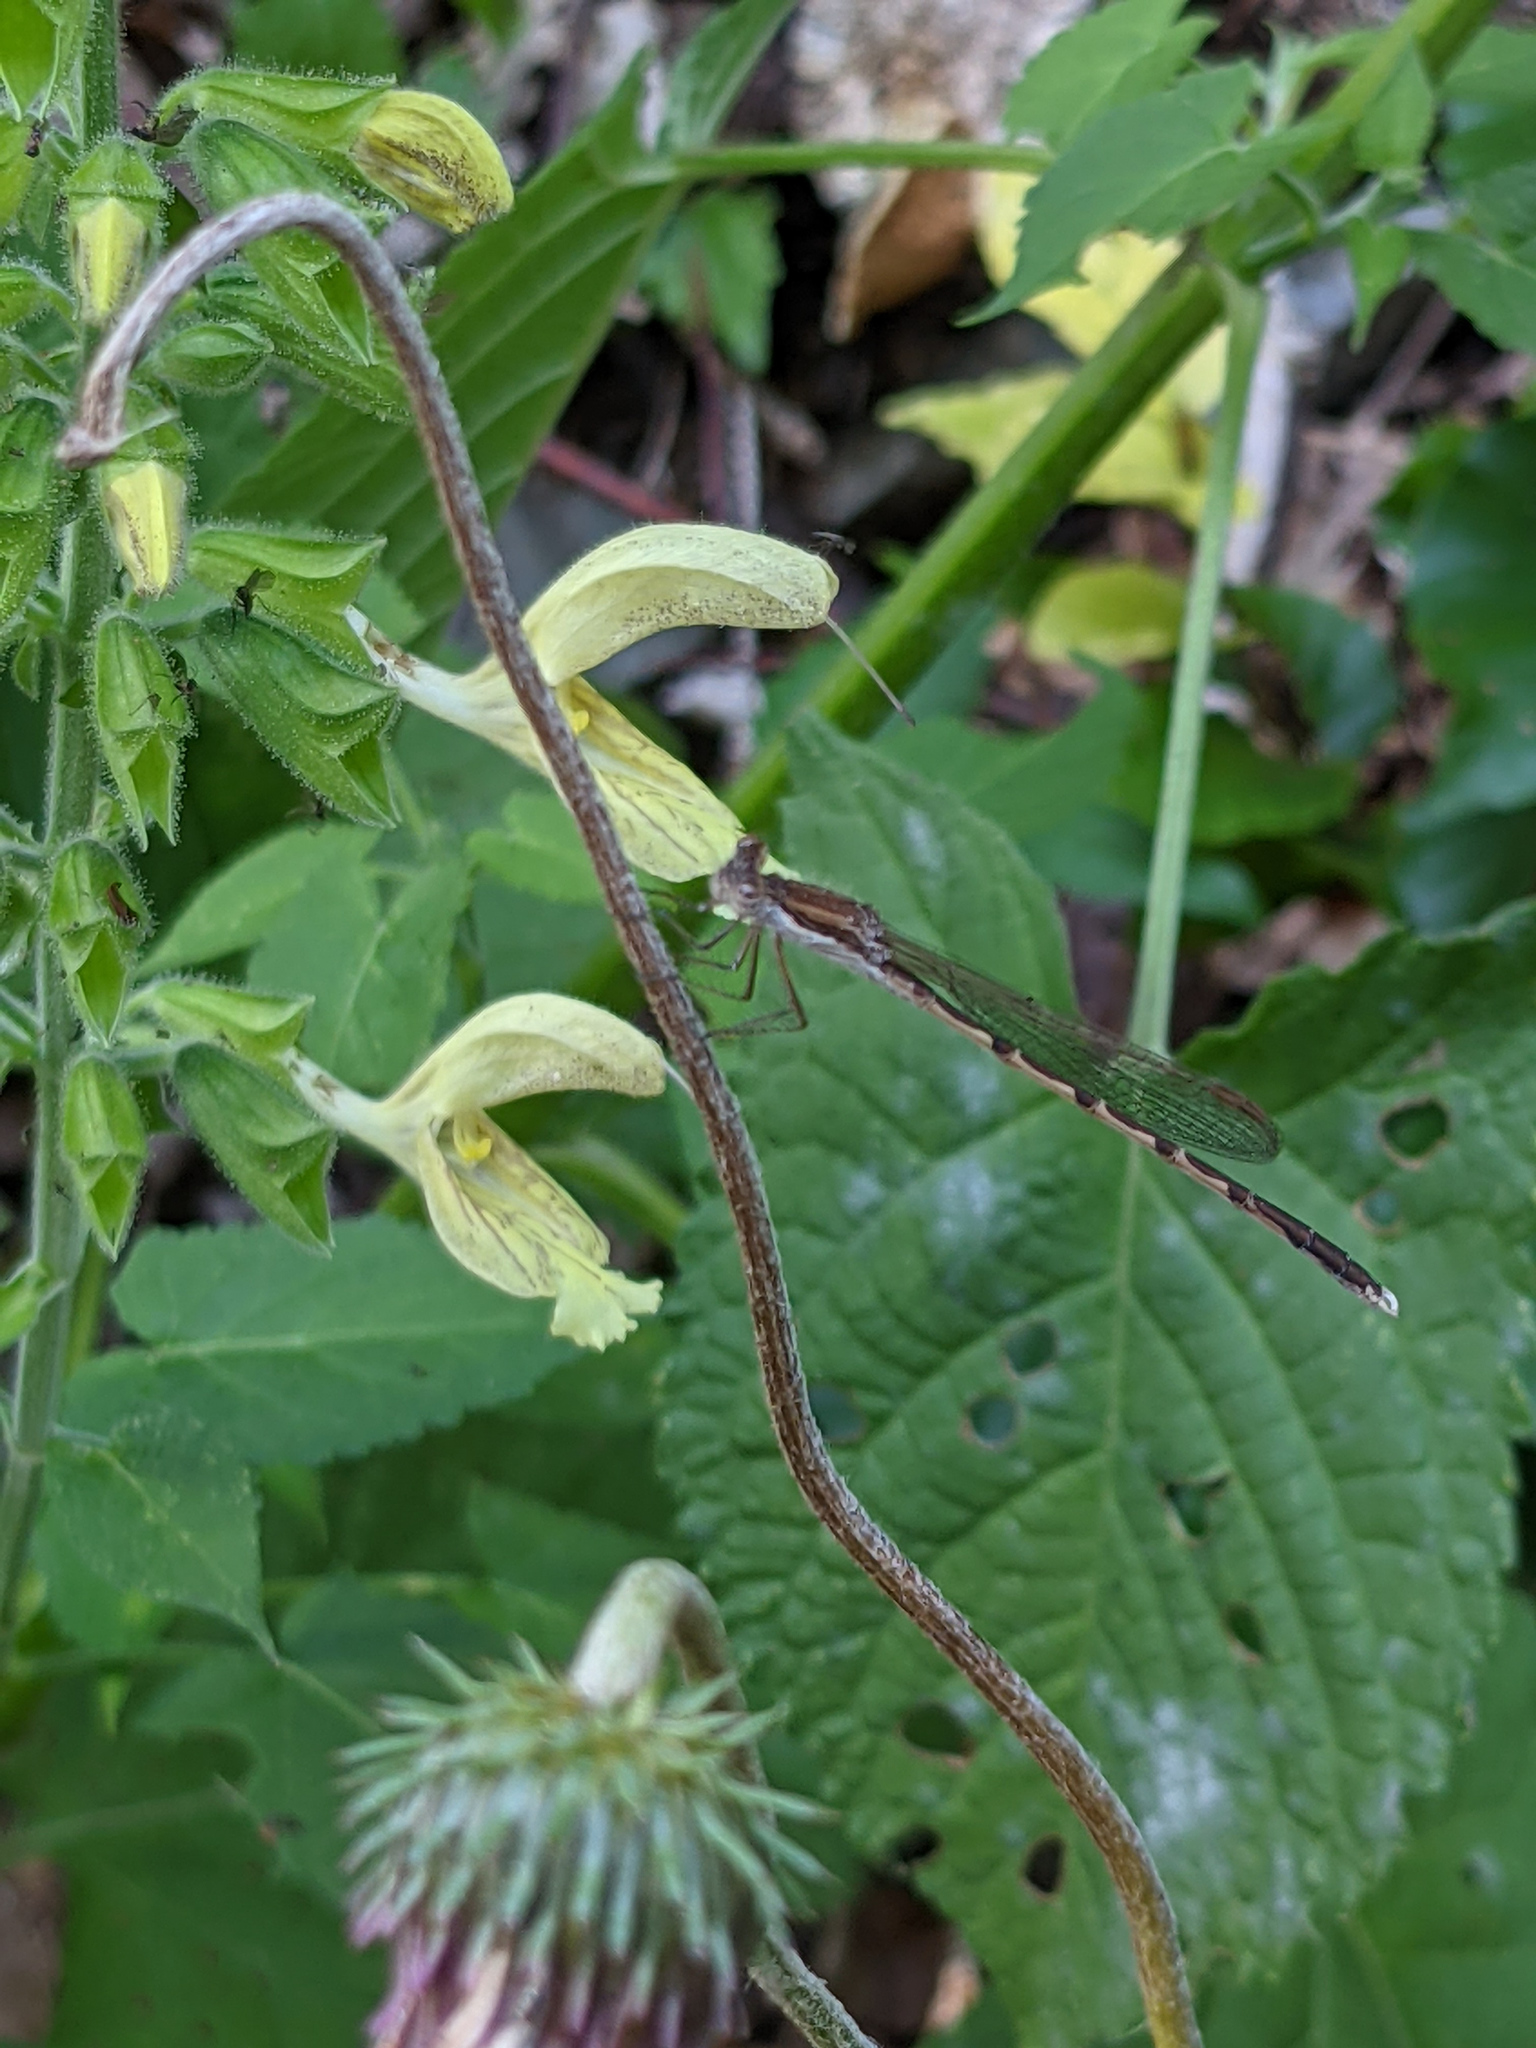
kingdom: Animalia
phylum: Arthropoda
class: Insecta
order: Odonata
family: Lestidae
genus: Sympecma
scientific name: Sympecma fusca
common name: Common winter damsel
